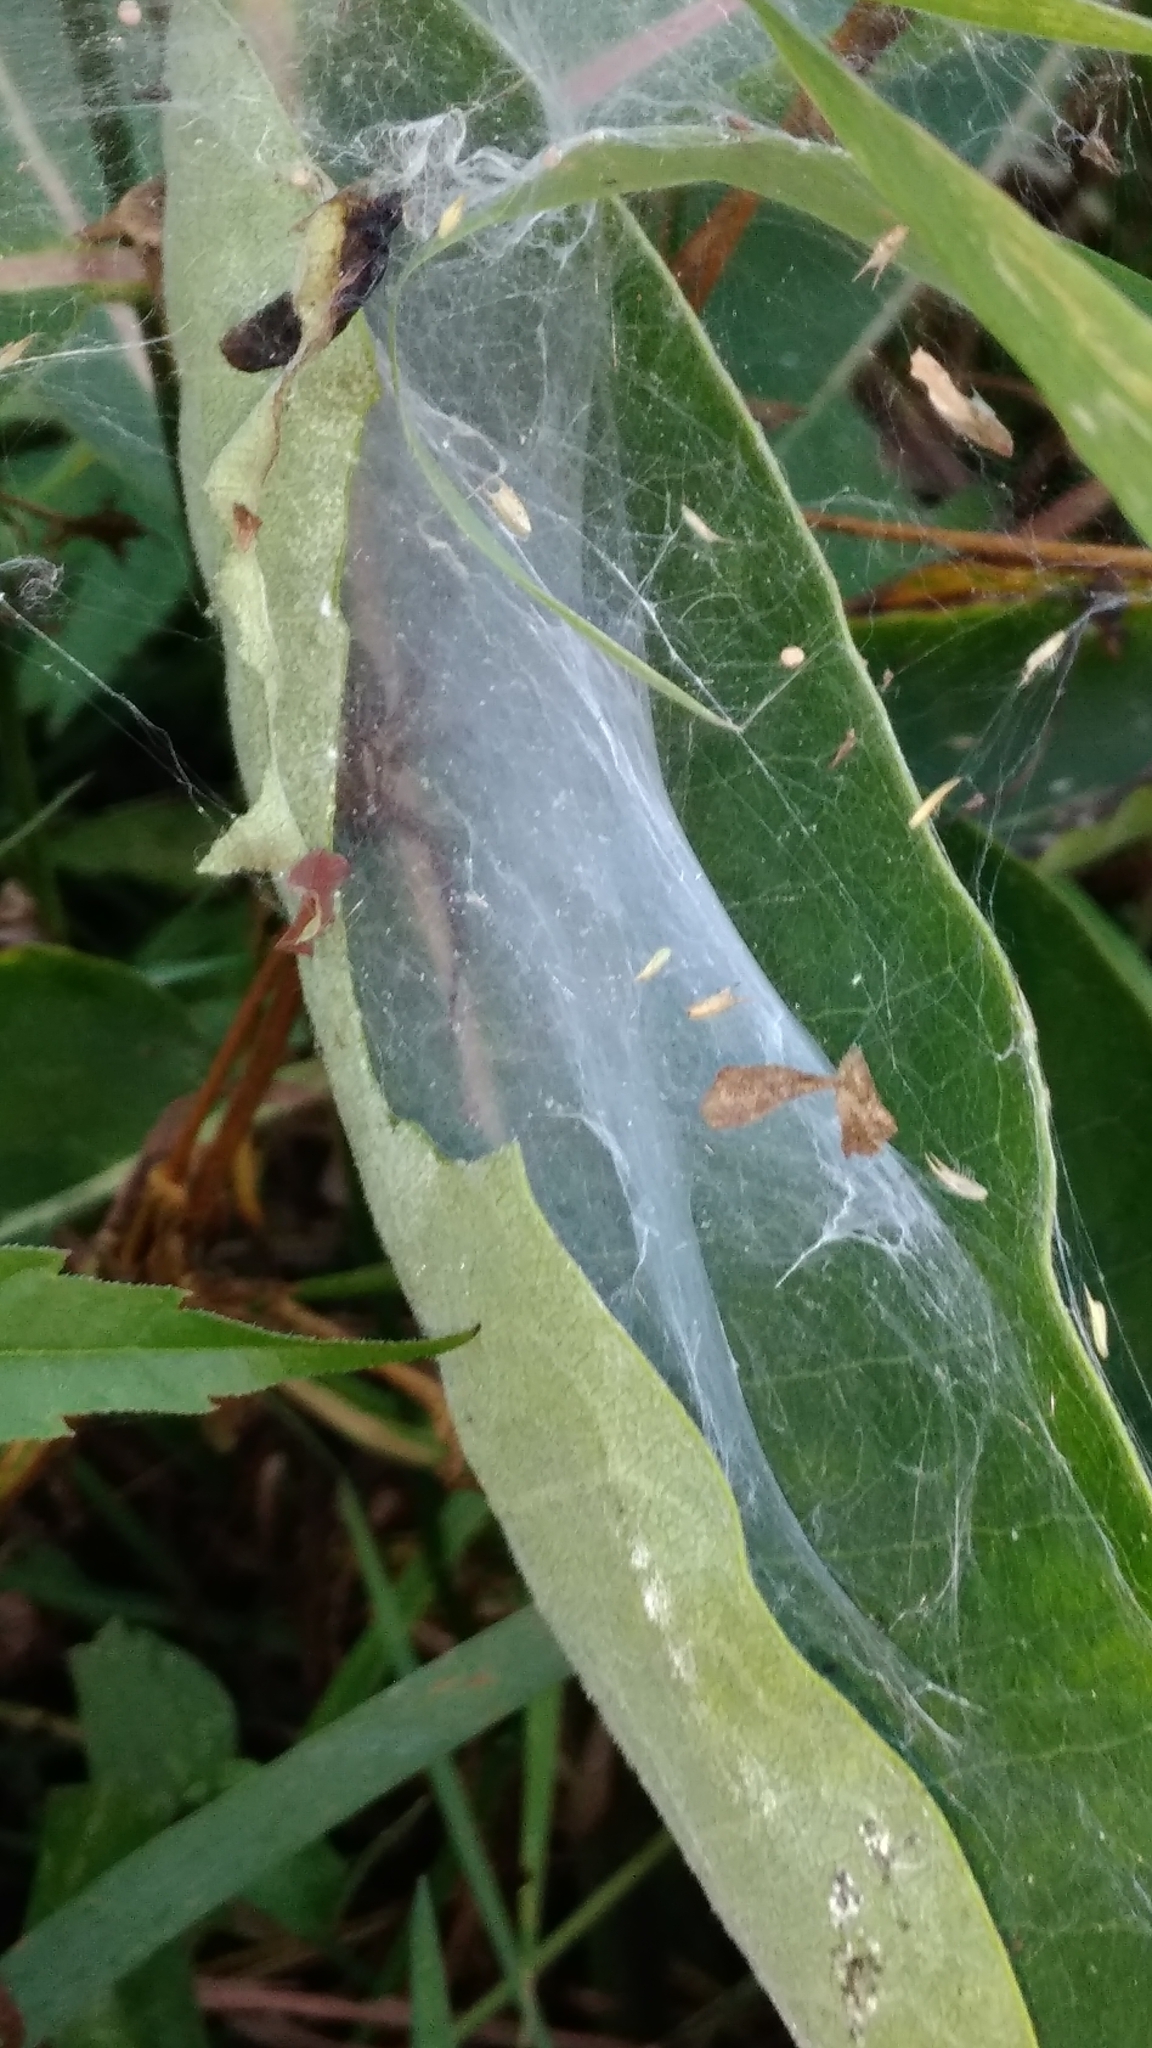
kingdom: Animalia
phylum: Arthropoda
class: Arachnida
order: Araneae
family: Agelenidae
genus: Agelenopsis
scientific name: Agelenopsis
